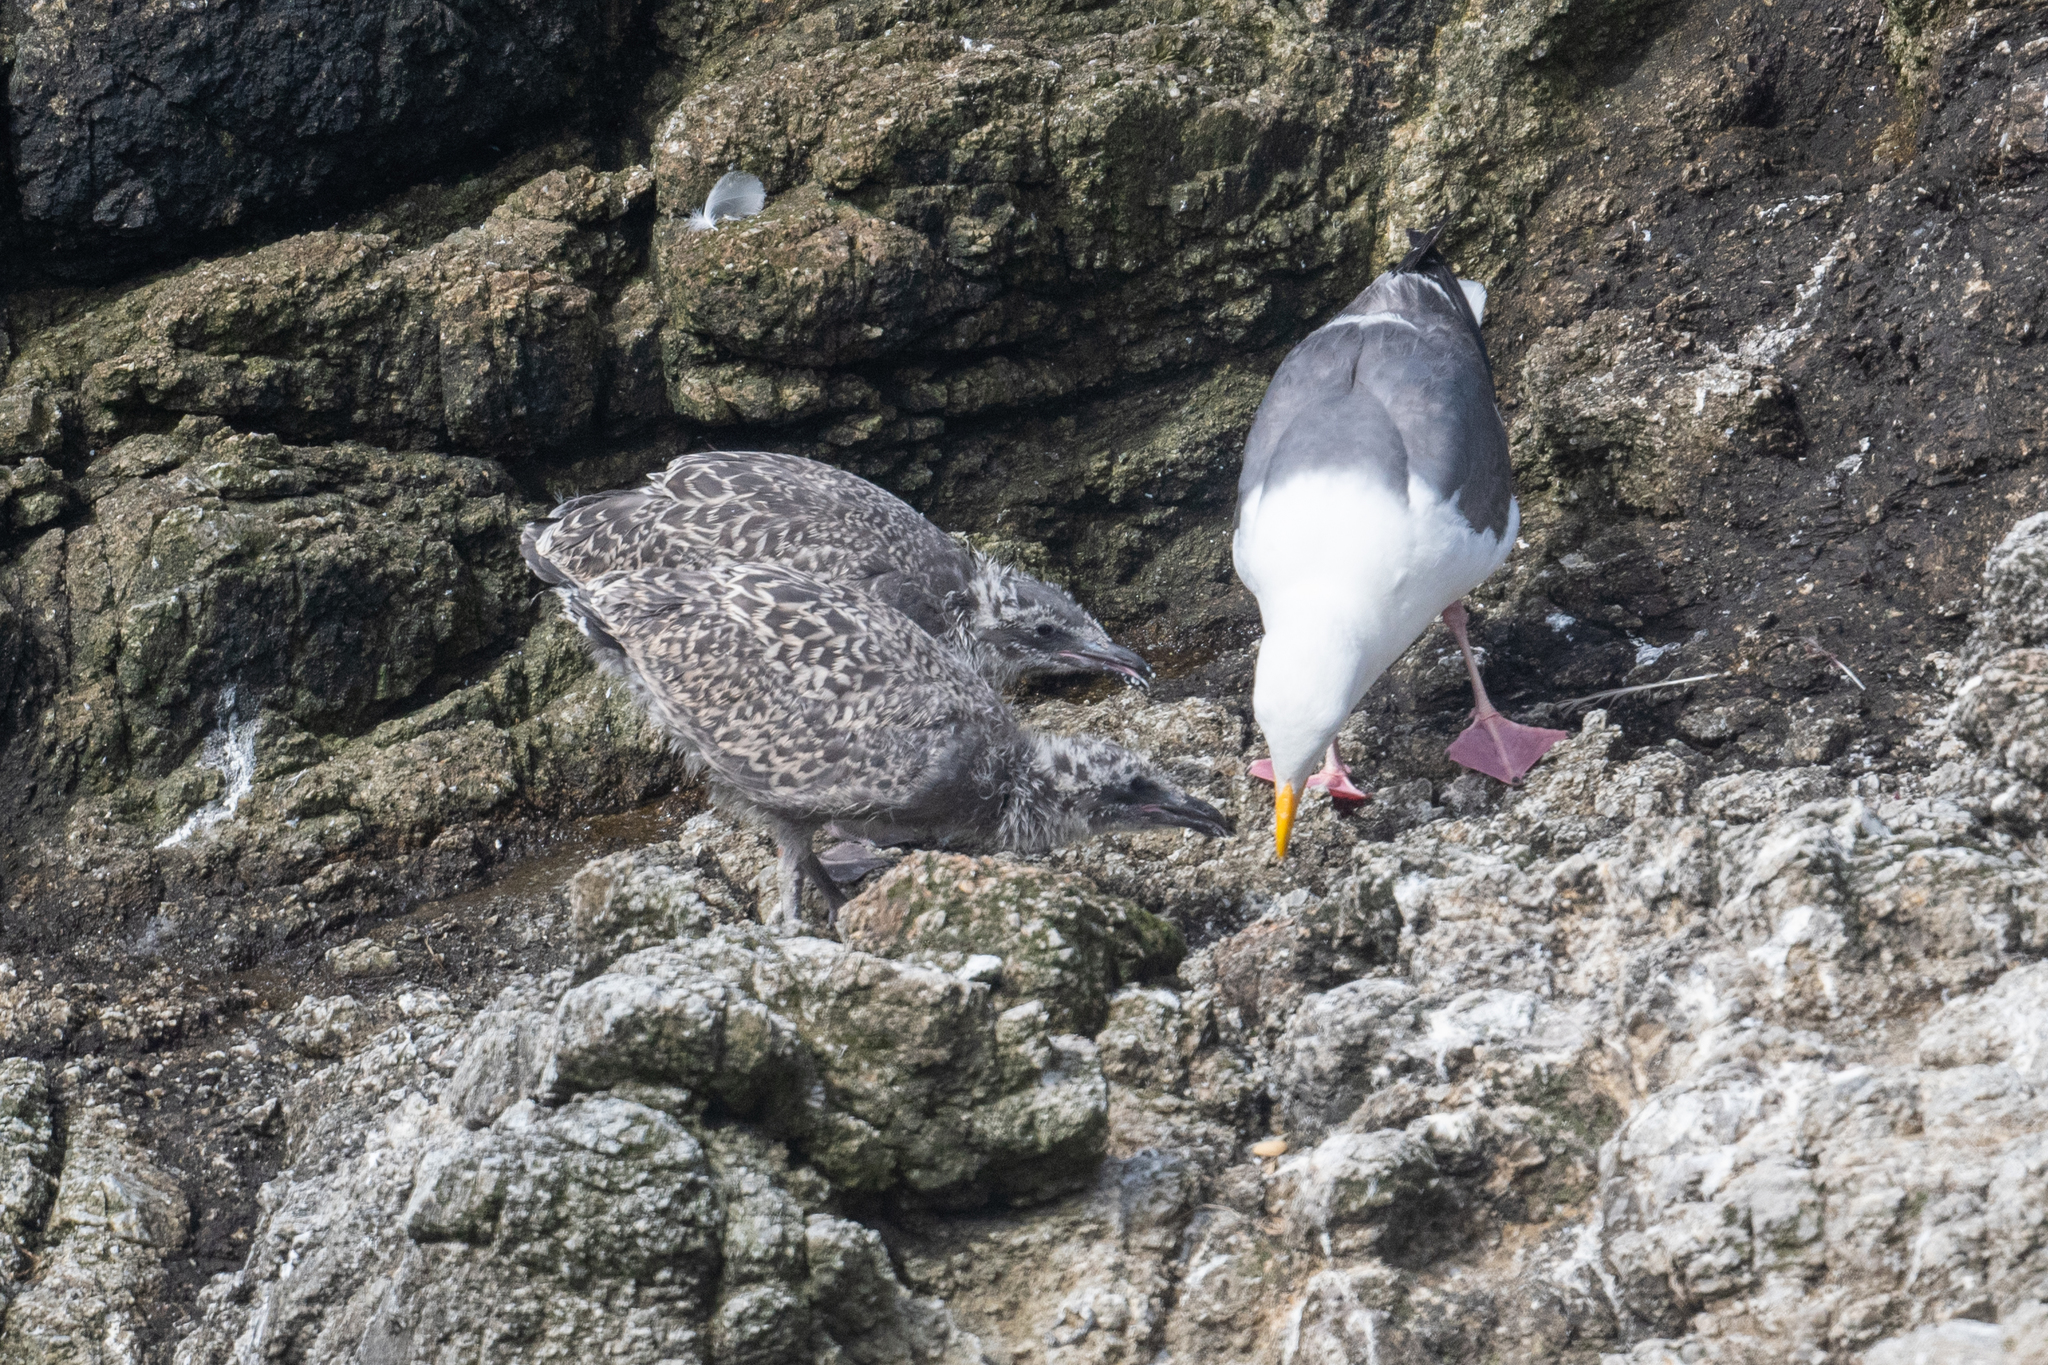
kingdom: Animalia
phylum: Chordata
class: Aves
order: Charadriiformes
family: Laridae
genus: Larus
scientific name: Larus occidentalis
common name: Western gull
